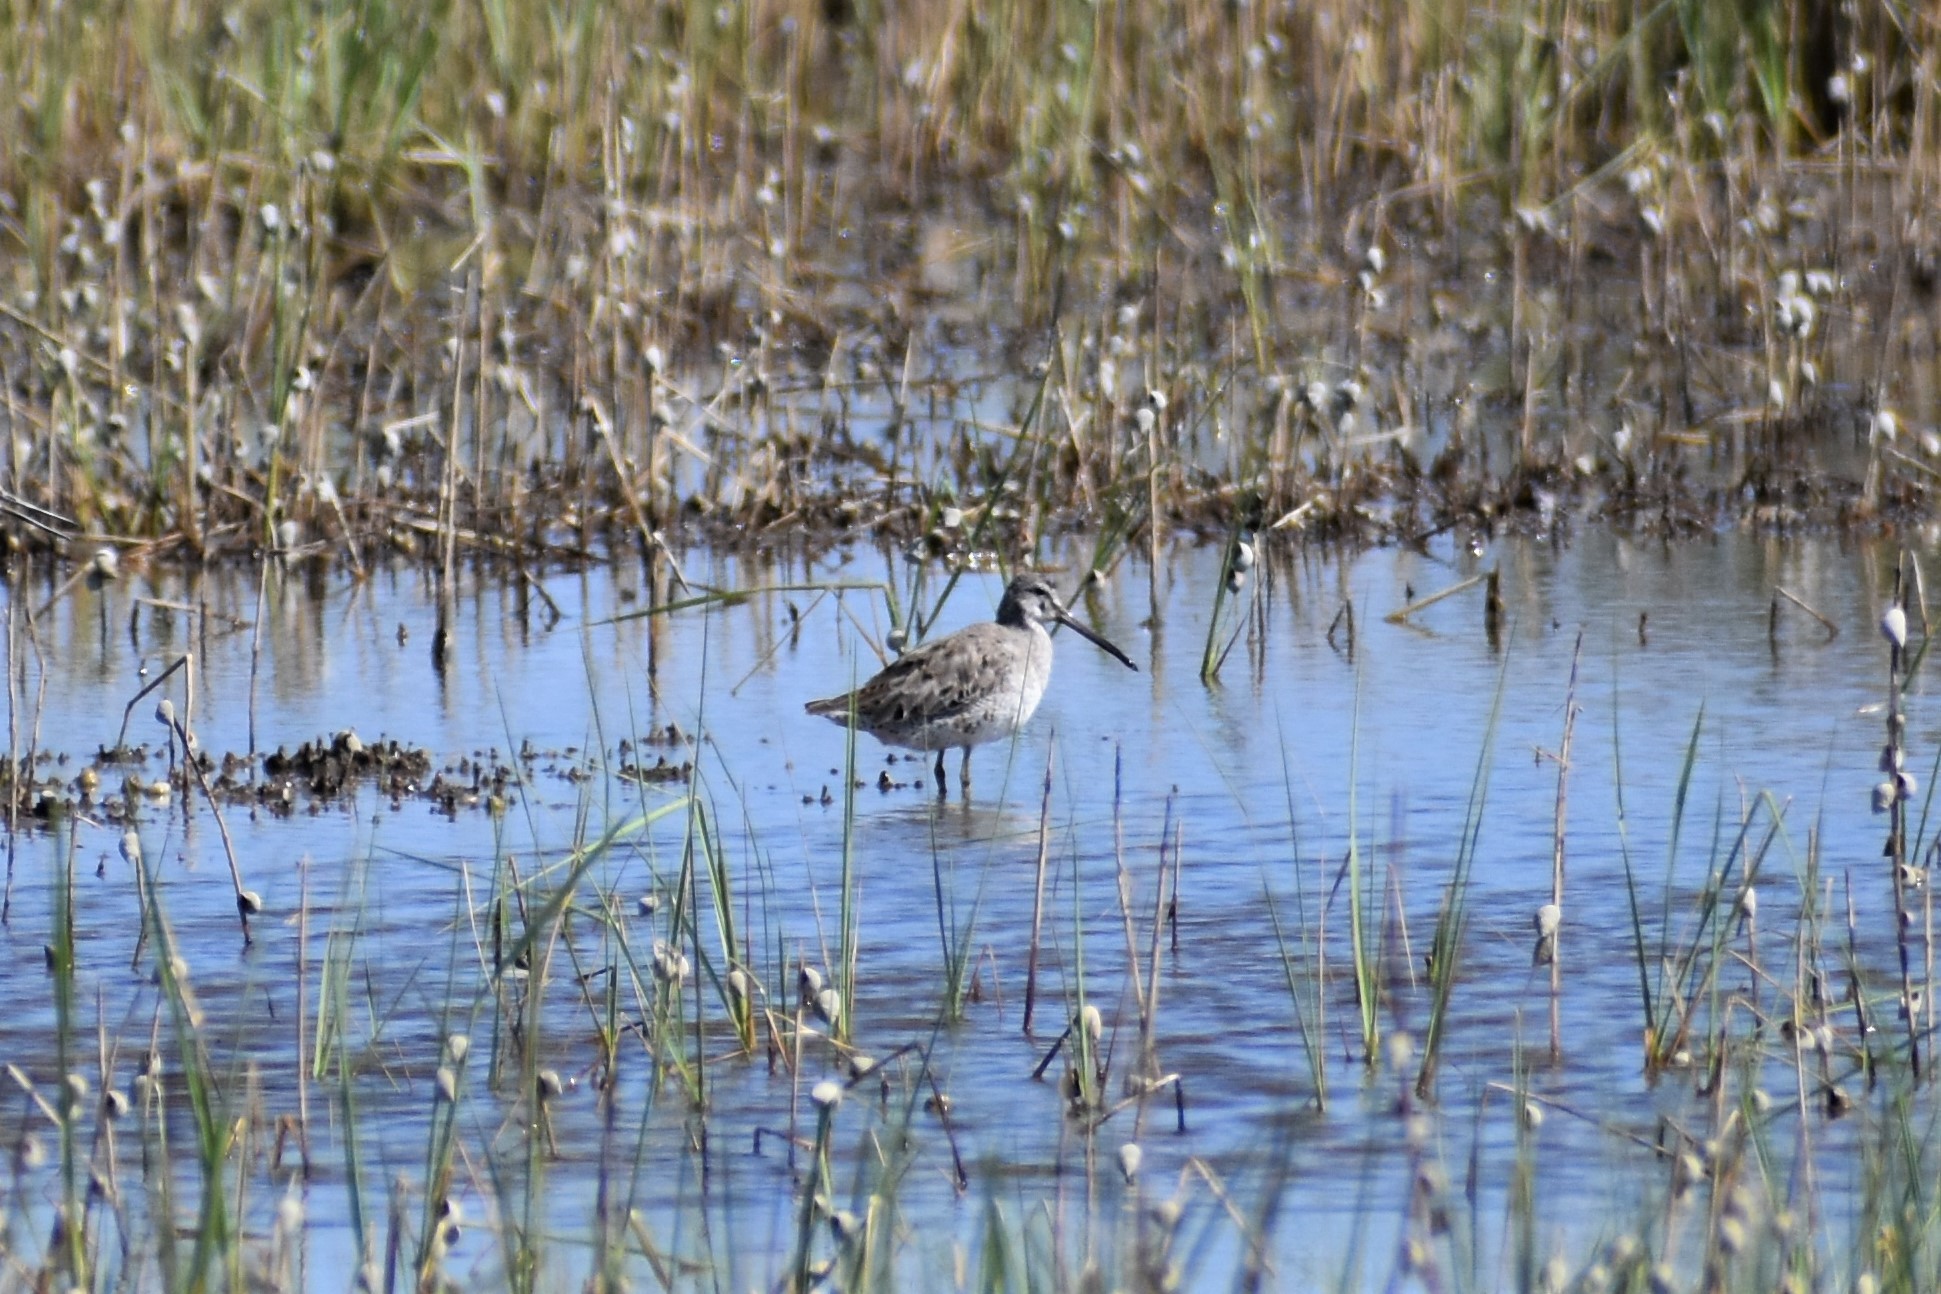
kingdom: Animalia
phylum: Chordata
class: Aves
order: Charadriiformes
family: Scolopacidae
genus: Limnodromus
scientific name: Limnodromus griseus
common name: Short-billed dowitcher
